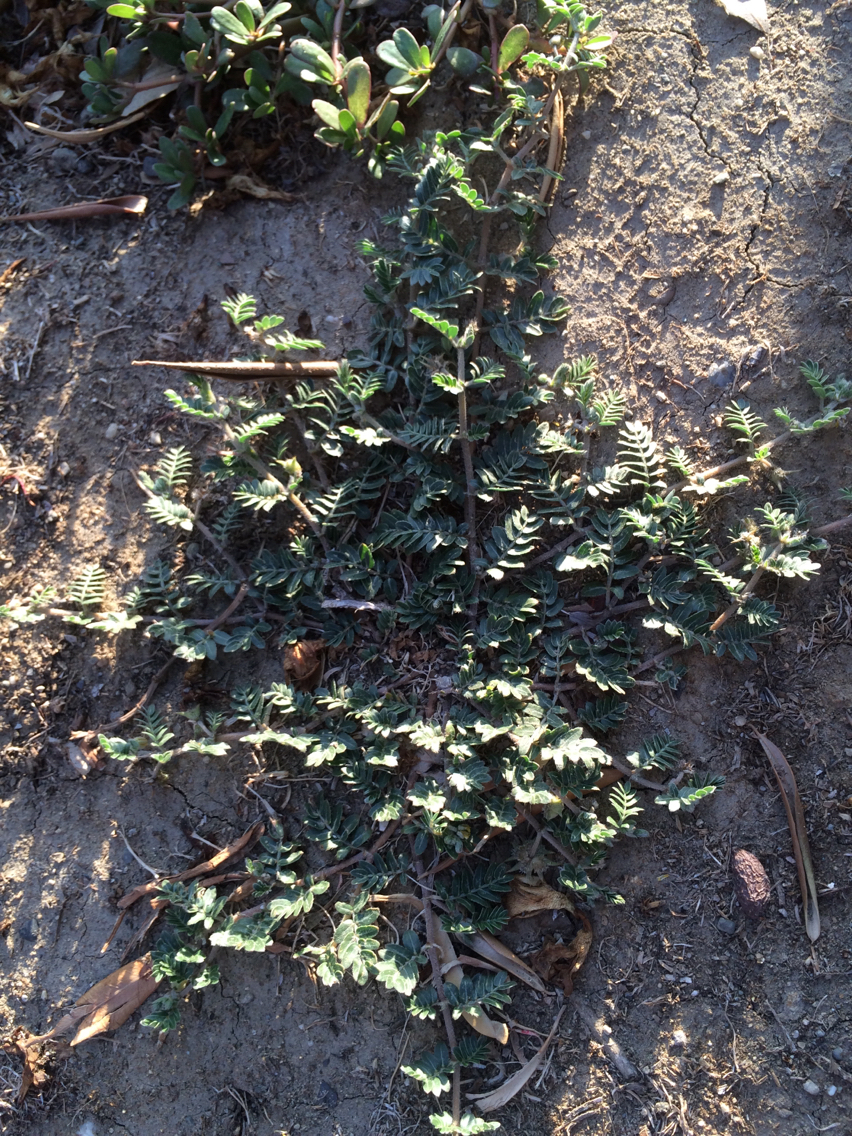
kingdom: Plantae
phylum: Tracheophyta
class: Magnoliopsida
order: Zygophyllales
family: Zygophyllaceae
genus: Tribulus
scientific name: Tribulus terrestris
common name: Puncturevine
